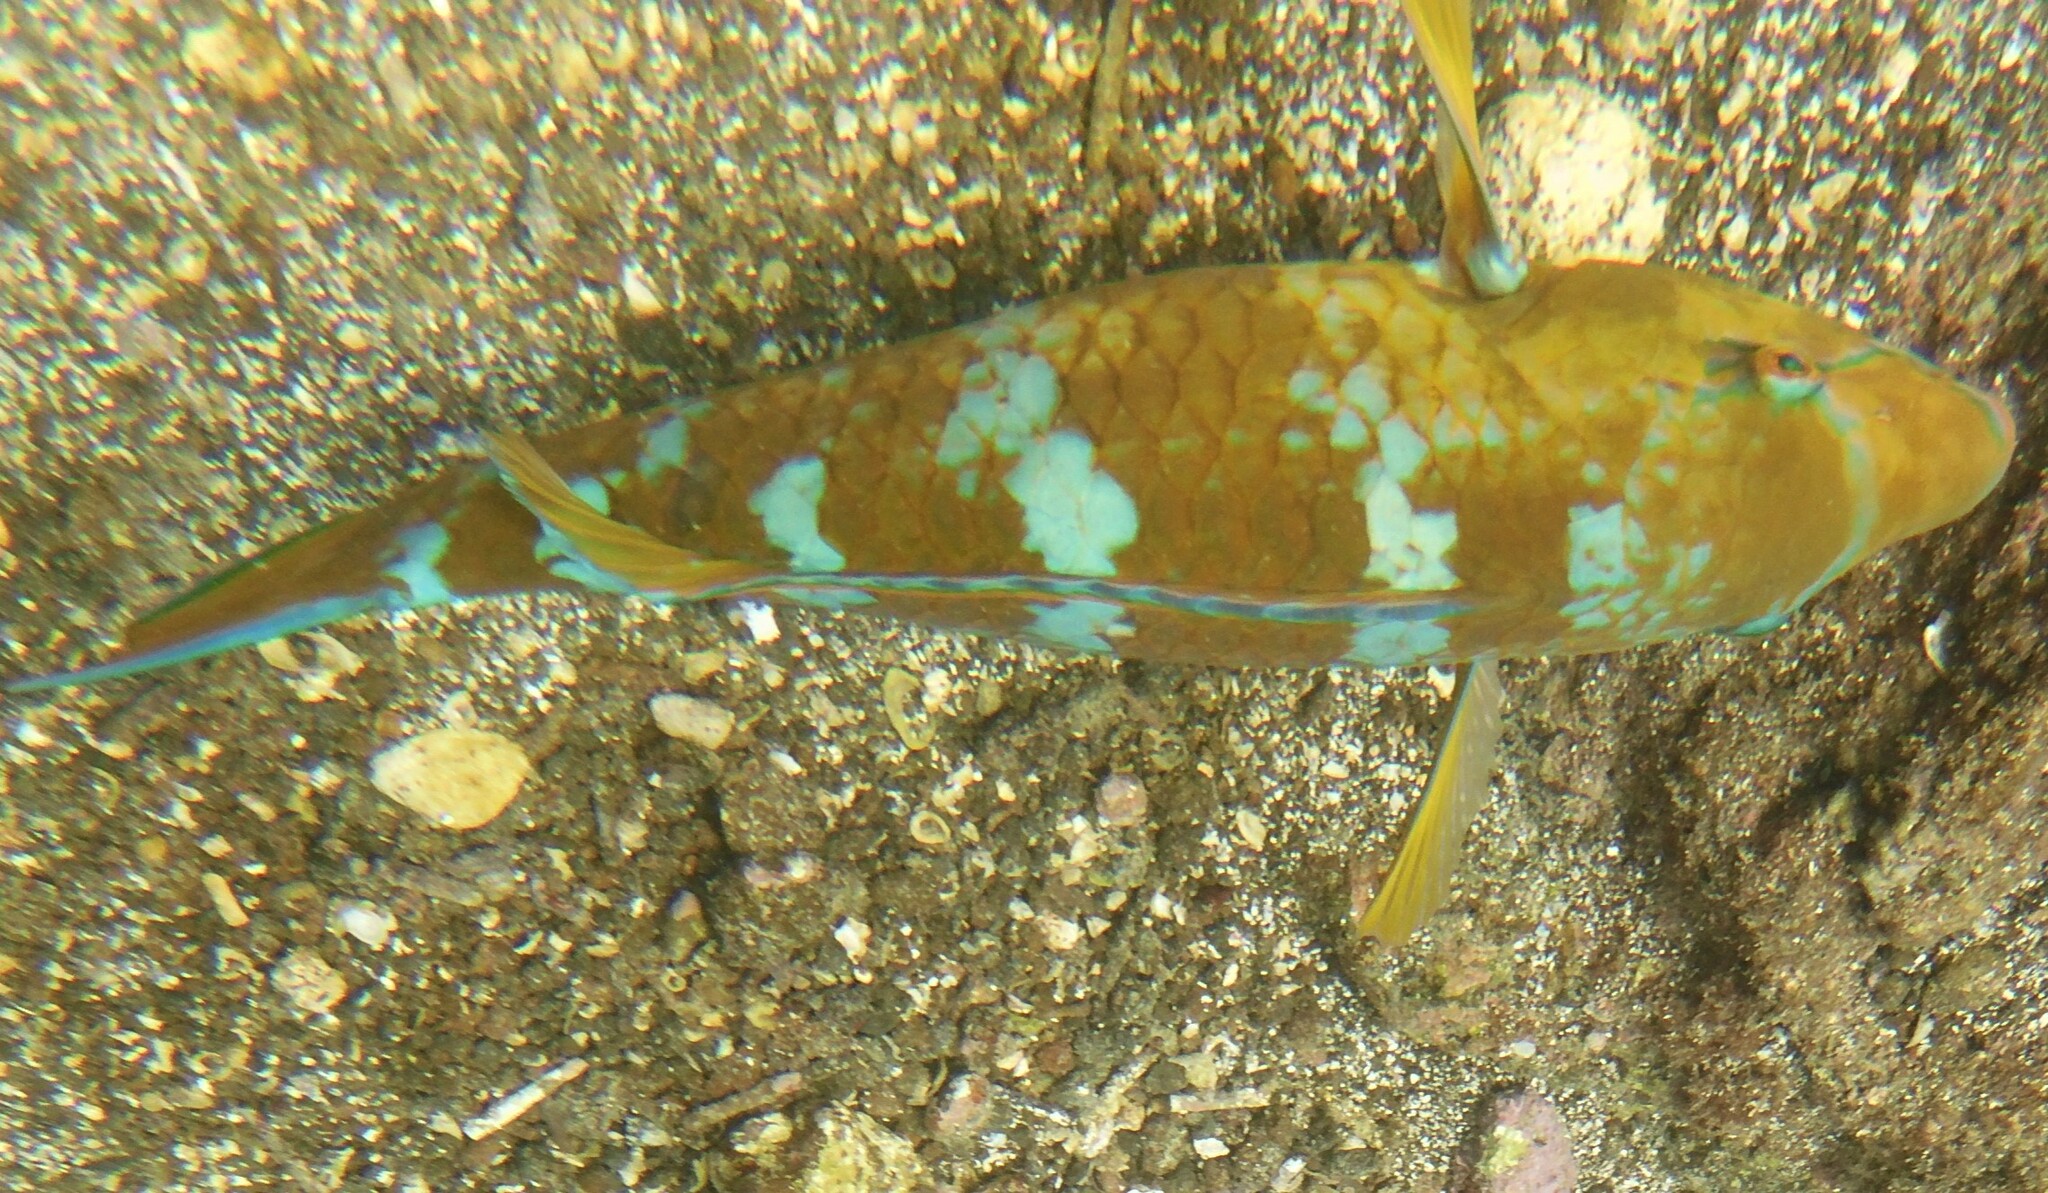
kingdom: Animalia
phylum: Chordata
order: Perciformes
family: Scaridae
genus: Scarus
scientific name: Scarus ghobban
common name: Blue-barred parrotfish
